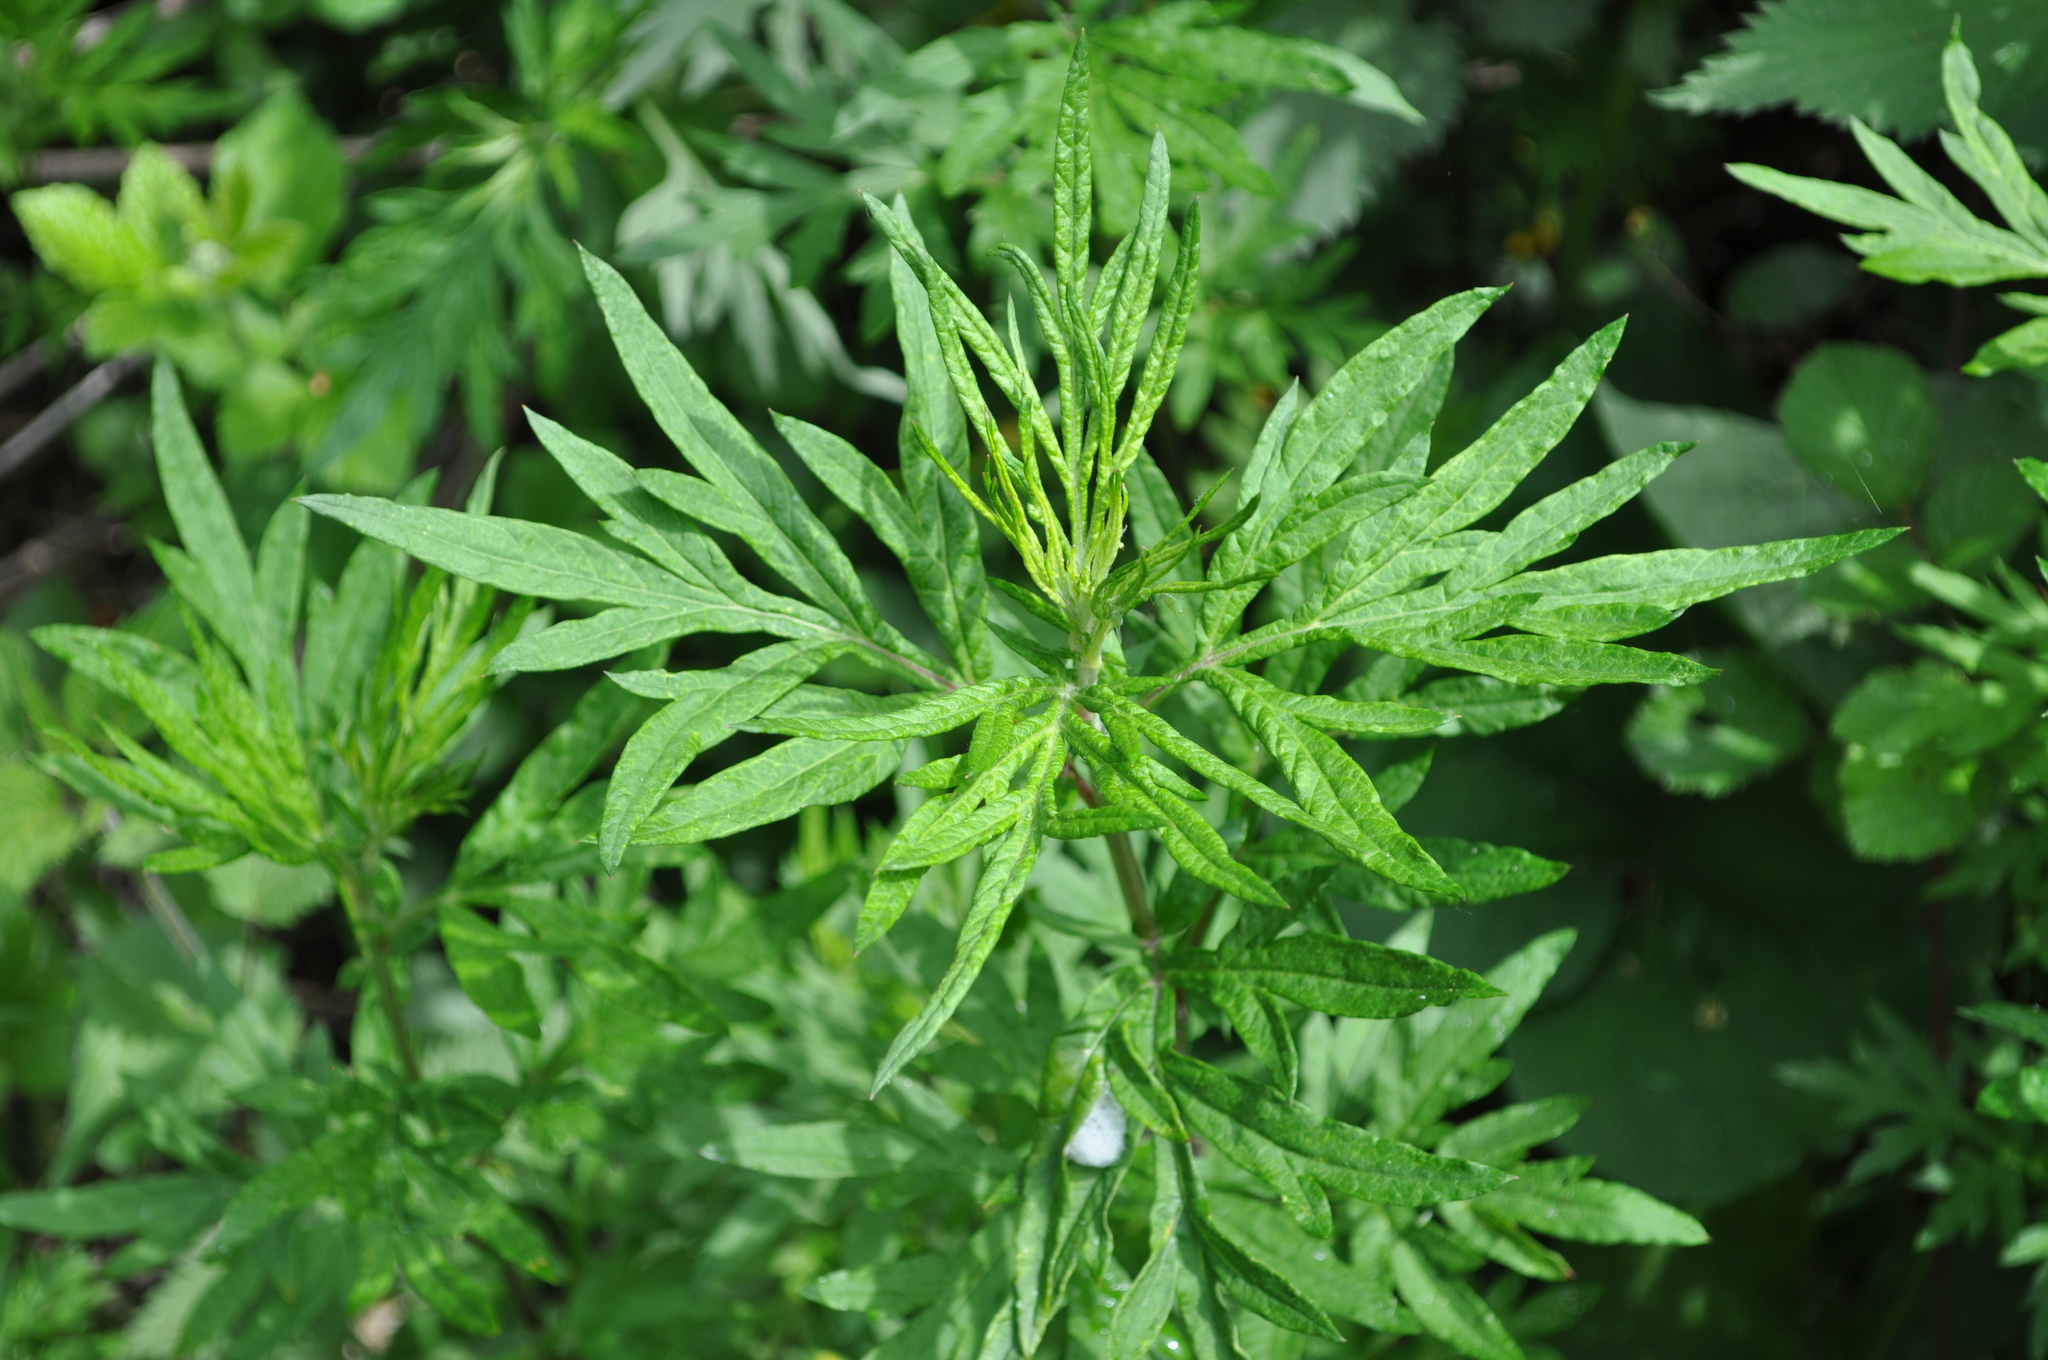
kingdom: Plantae
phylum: Tracheophyta
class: Magnoliopsida
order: Asterales
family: Asteraceae
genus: Artemisia
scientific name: Artemisia verlotiorum
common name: Chinese mugwort
